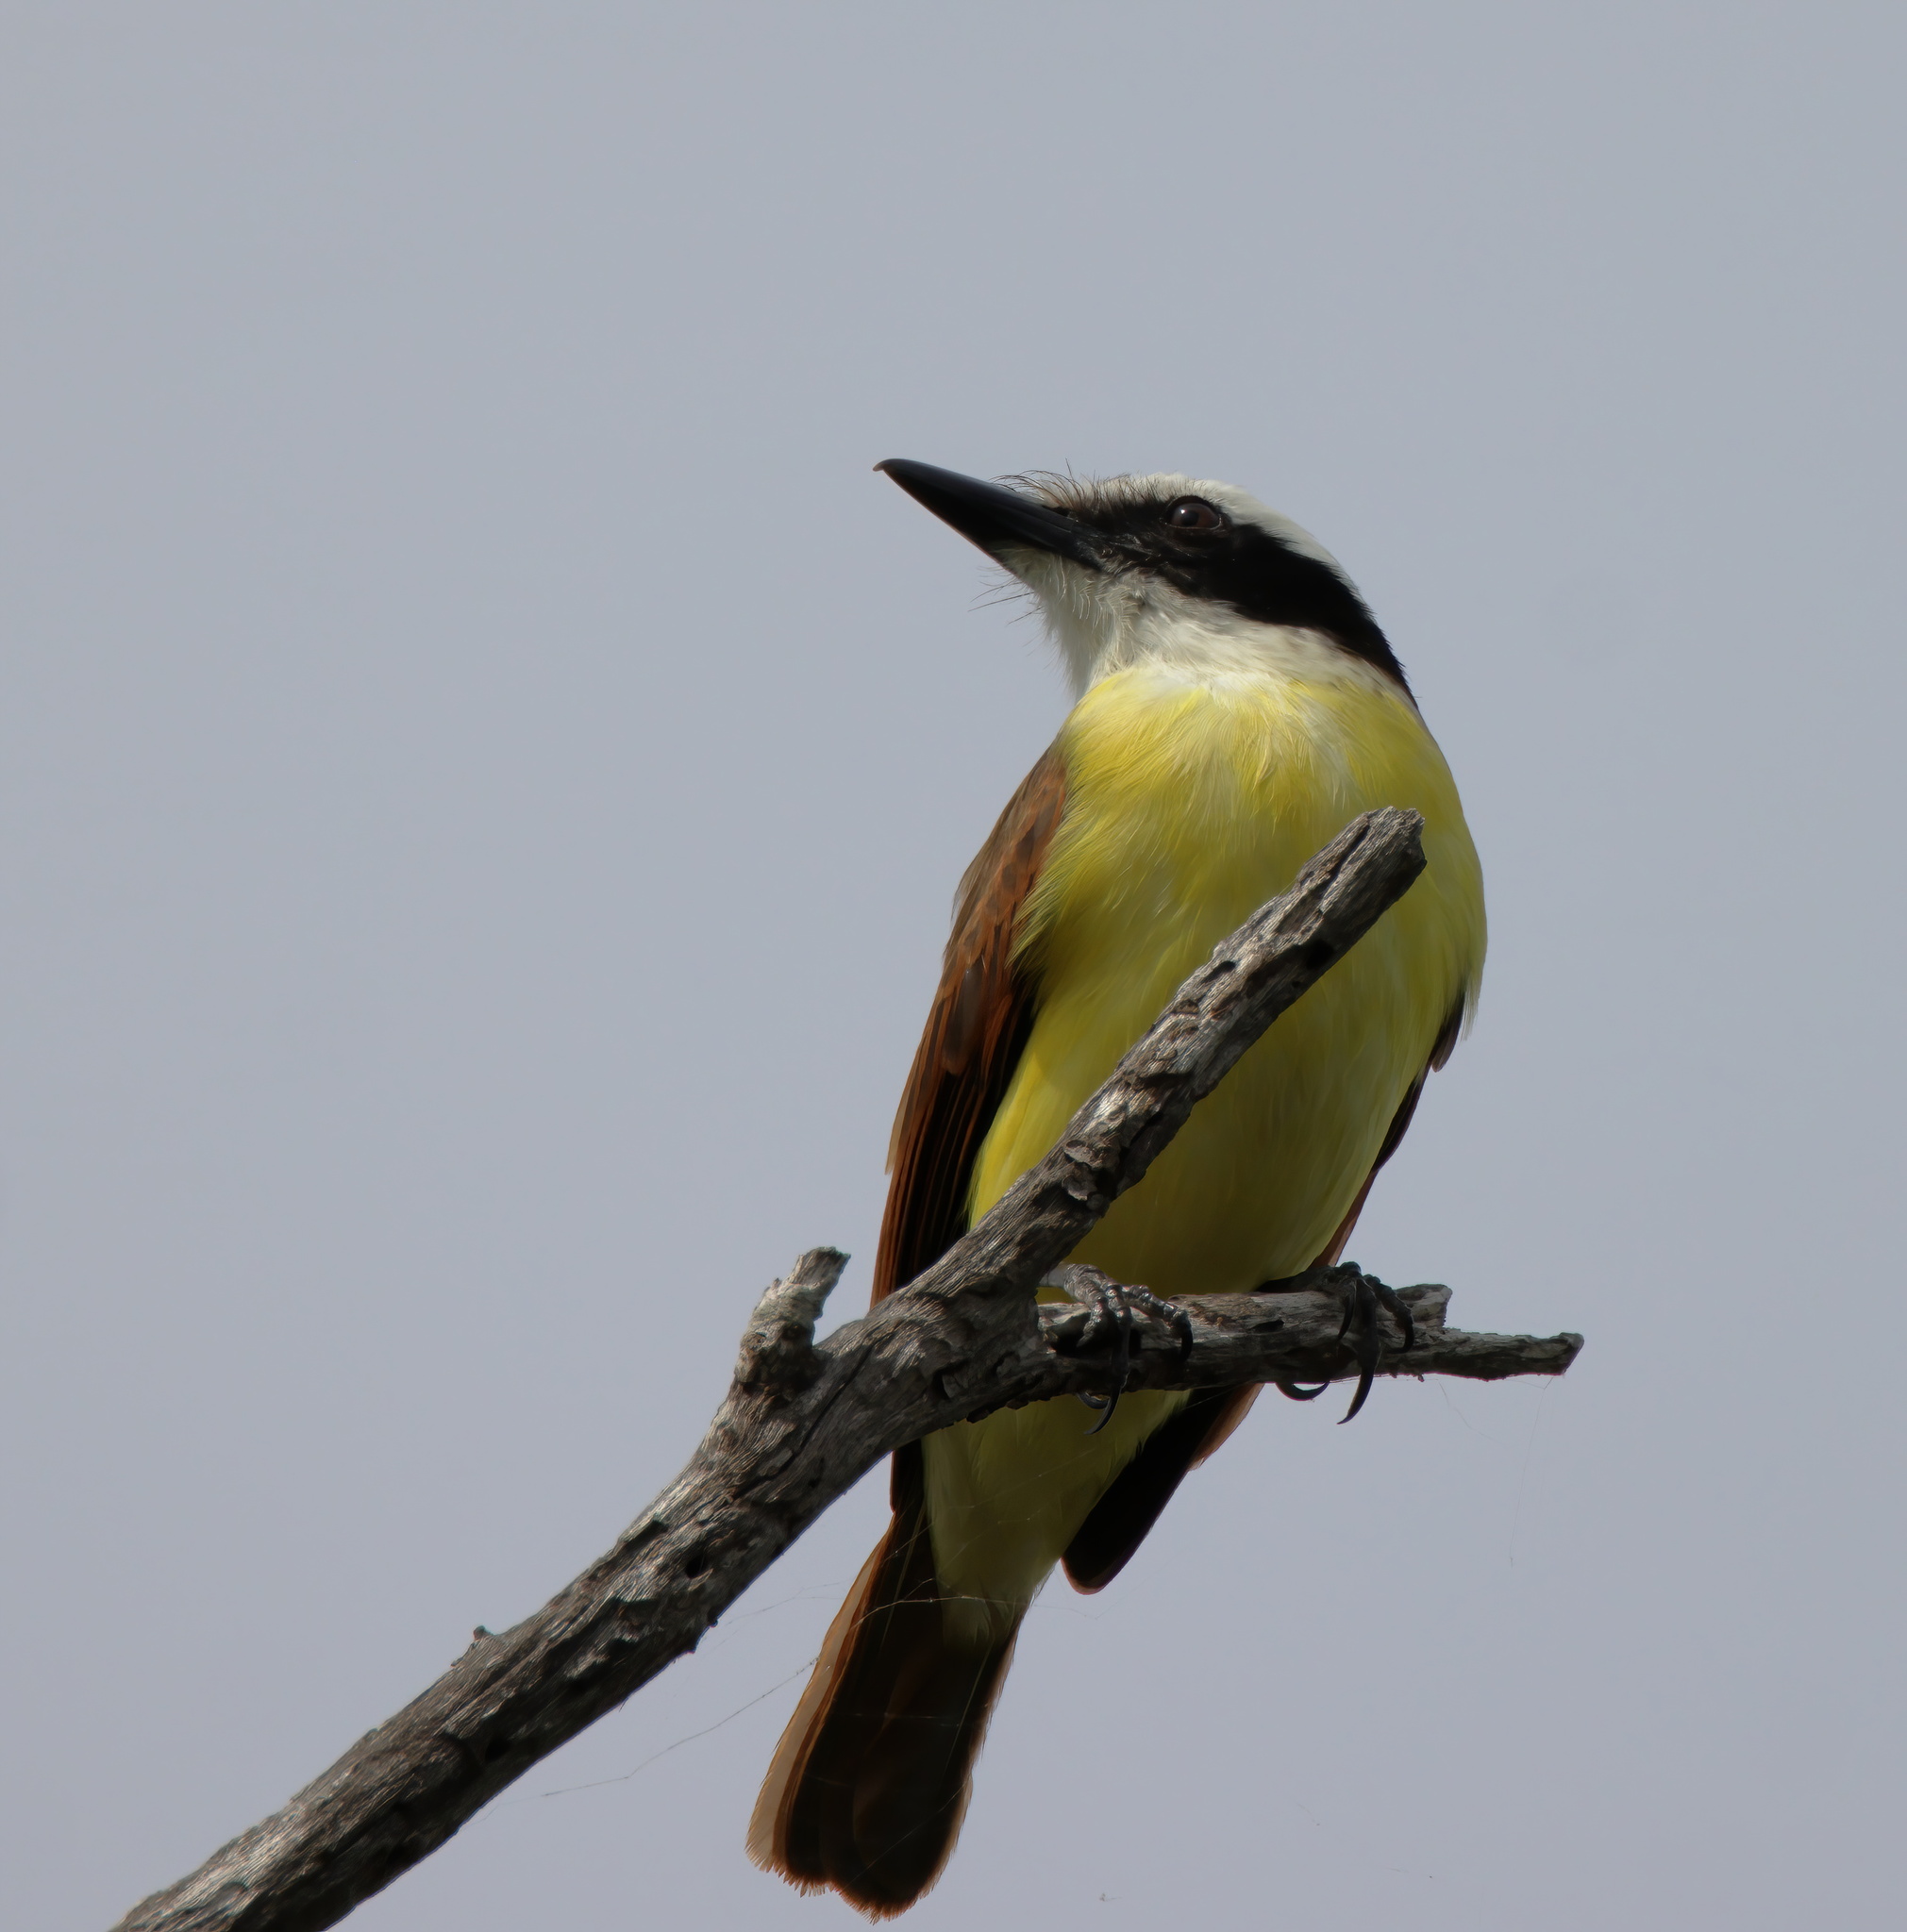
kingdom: Animalia
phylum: Chordata
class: Aves
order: Passeriformes
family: Tyrannidae
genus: Pitangus
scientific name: Pitangus sulphuratus
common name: Great kiskadee
